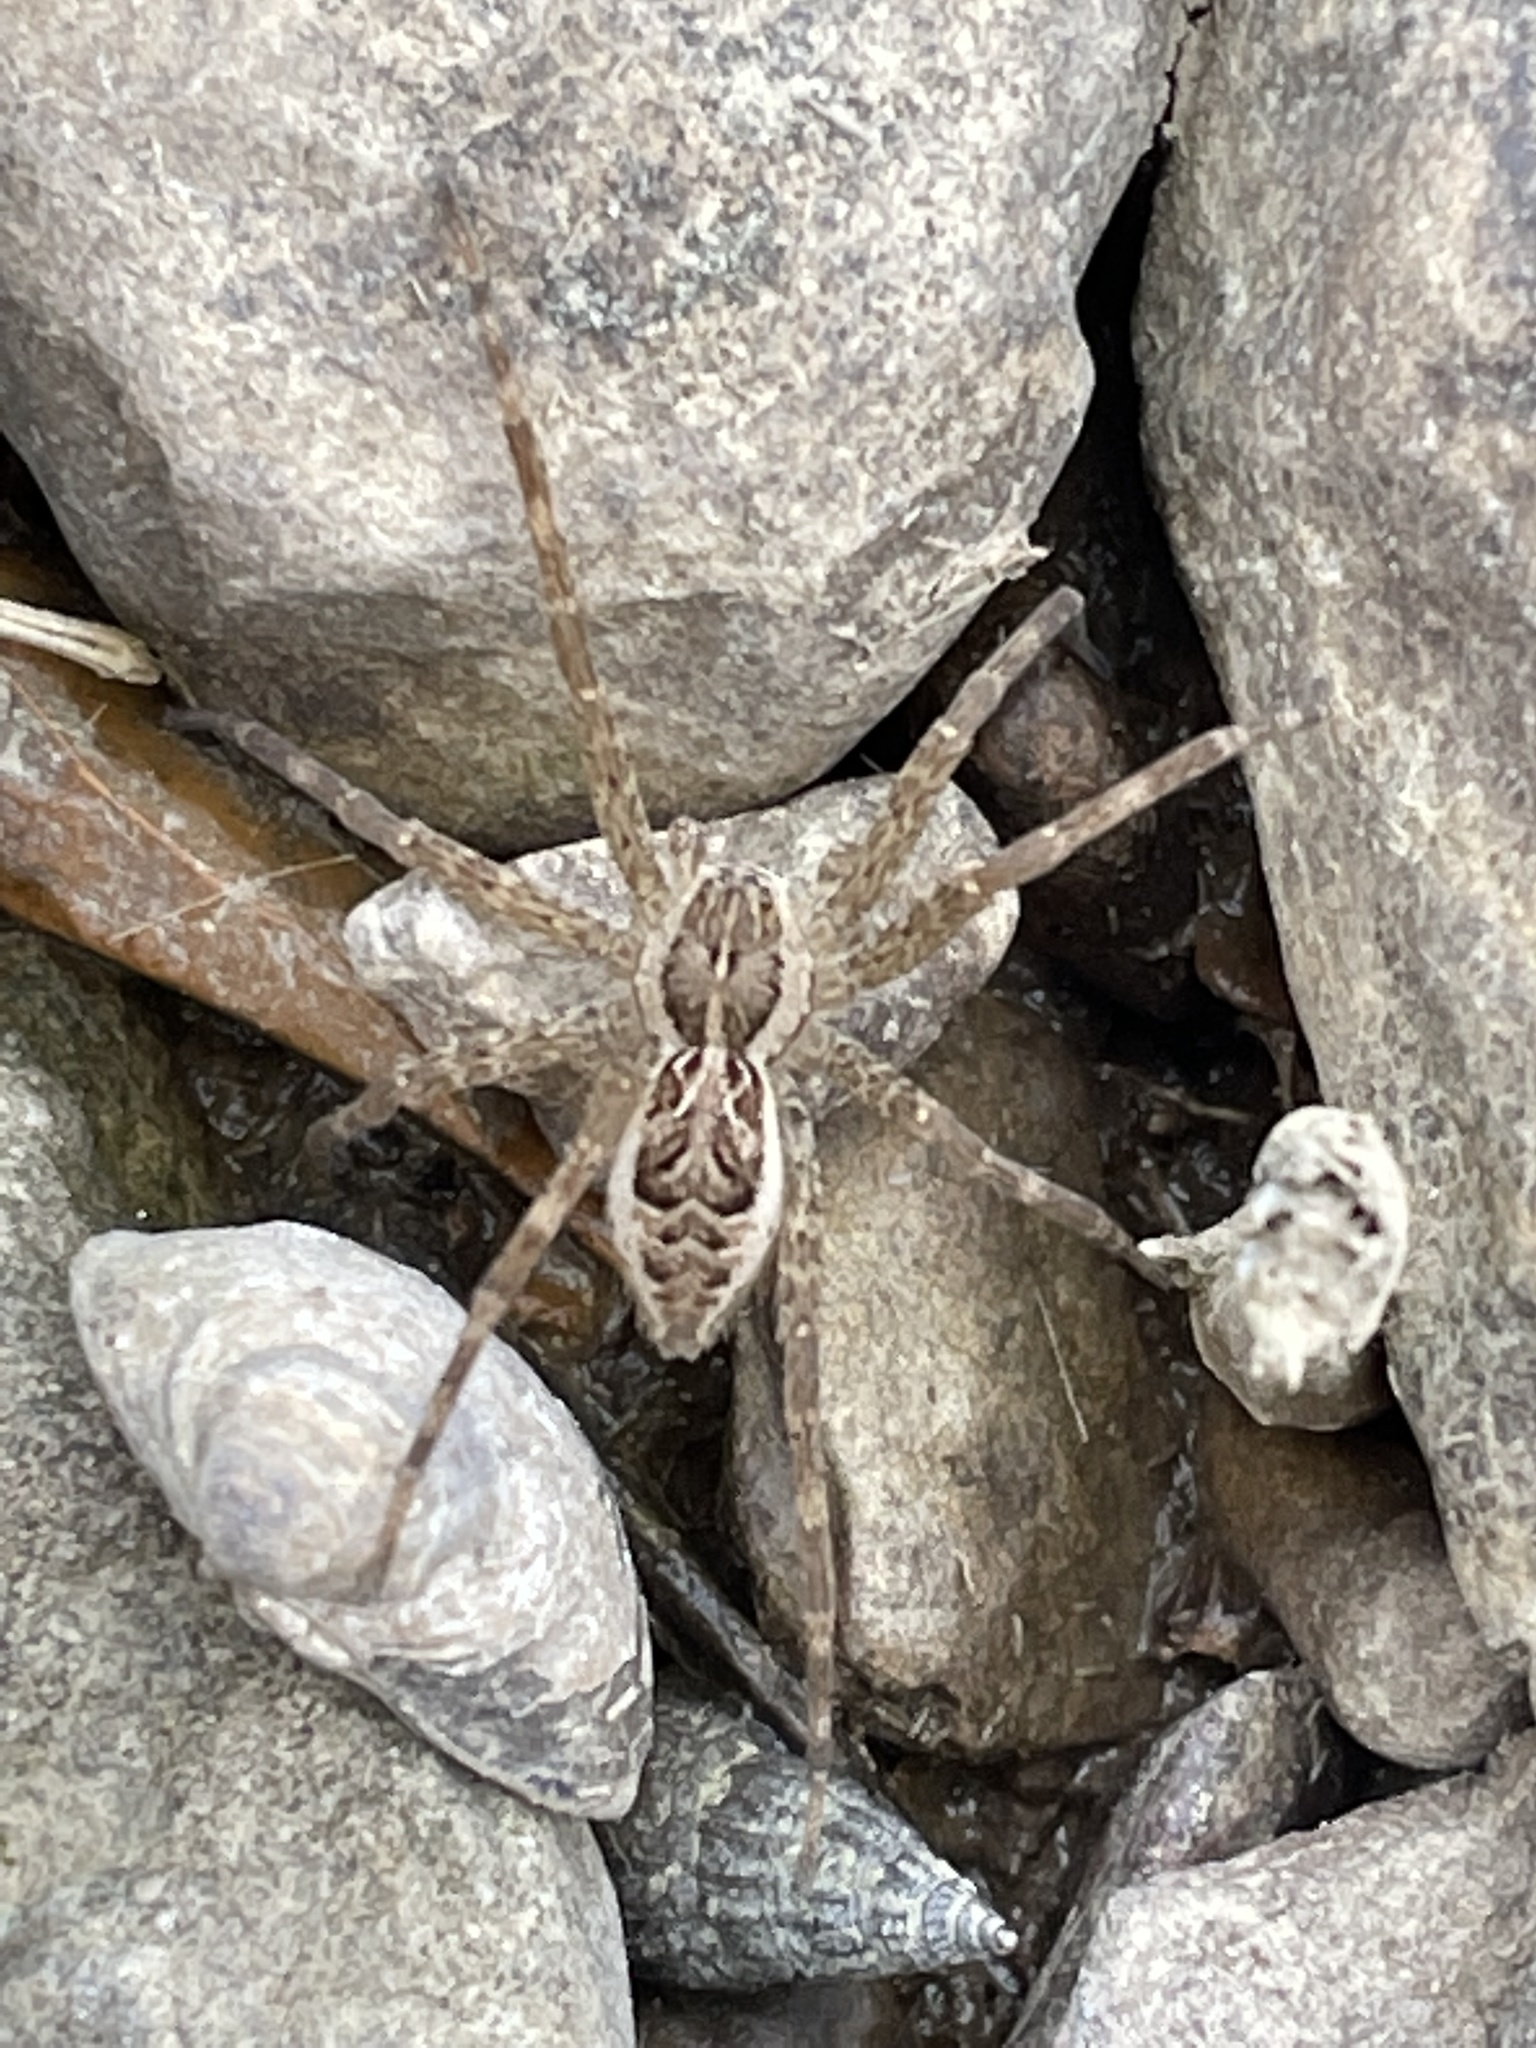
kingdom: Animalia
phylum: Arthropoda
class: Arachnida
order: Araneae
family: Pisauridae
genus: Dolomedes
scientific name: Dolomedes scriptus
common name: Striped fishing spider
